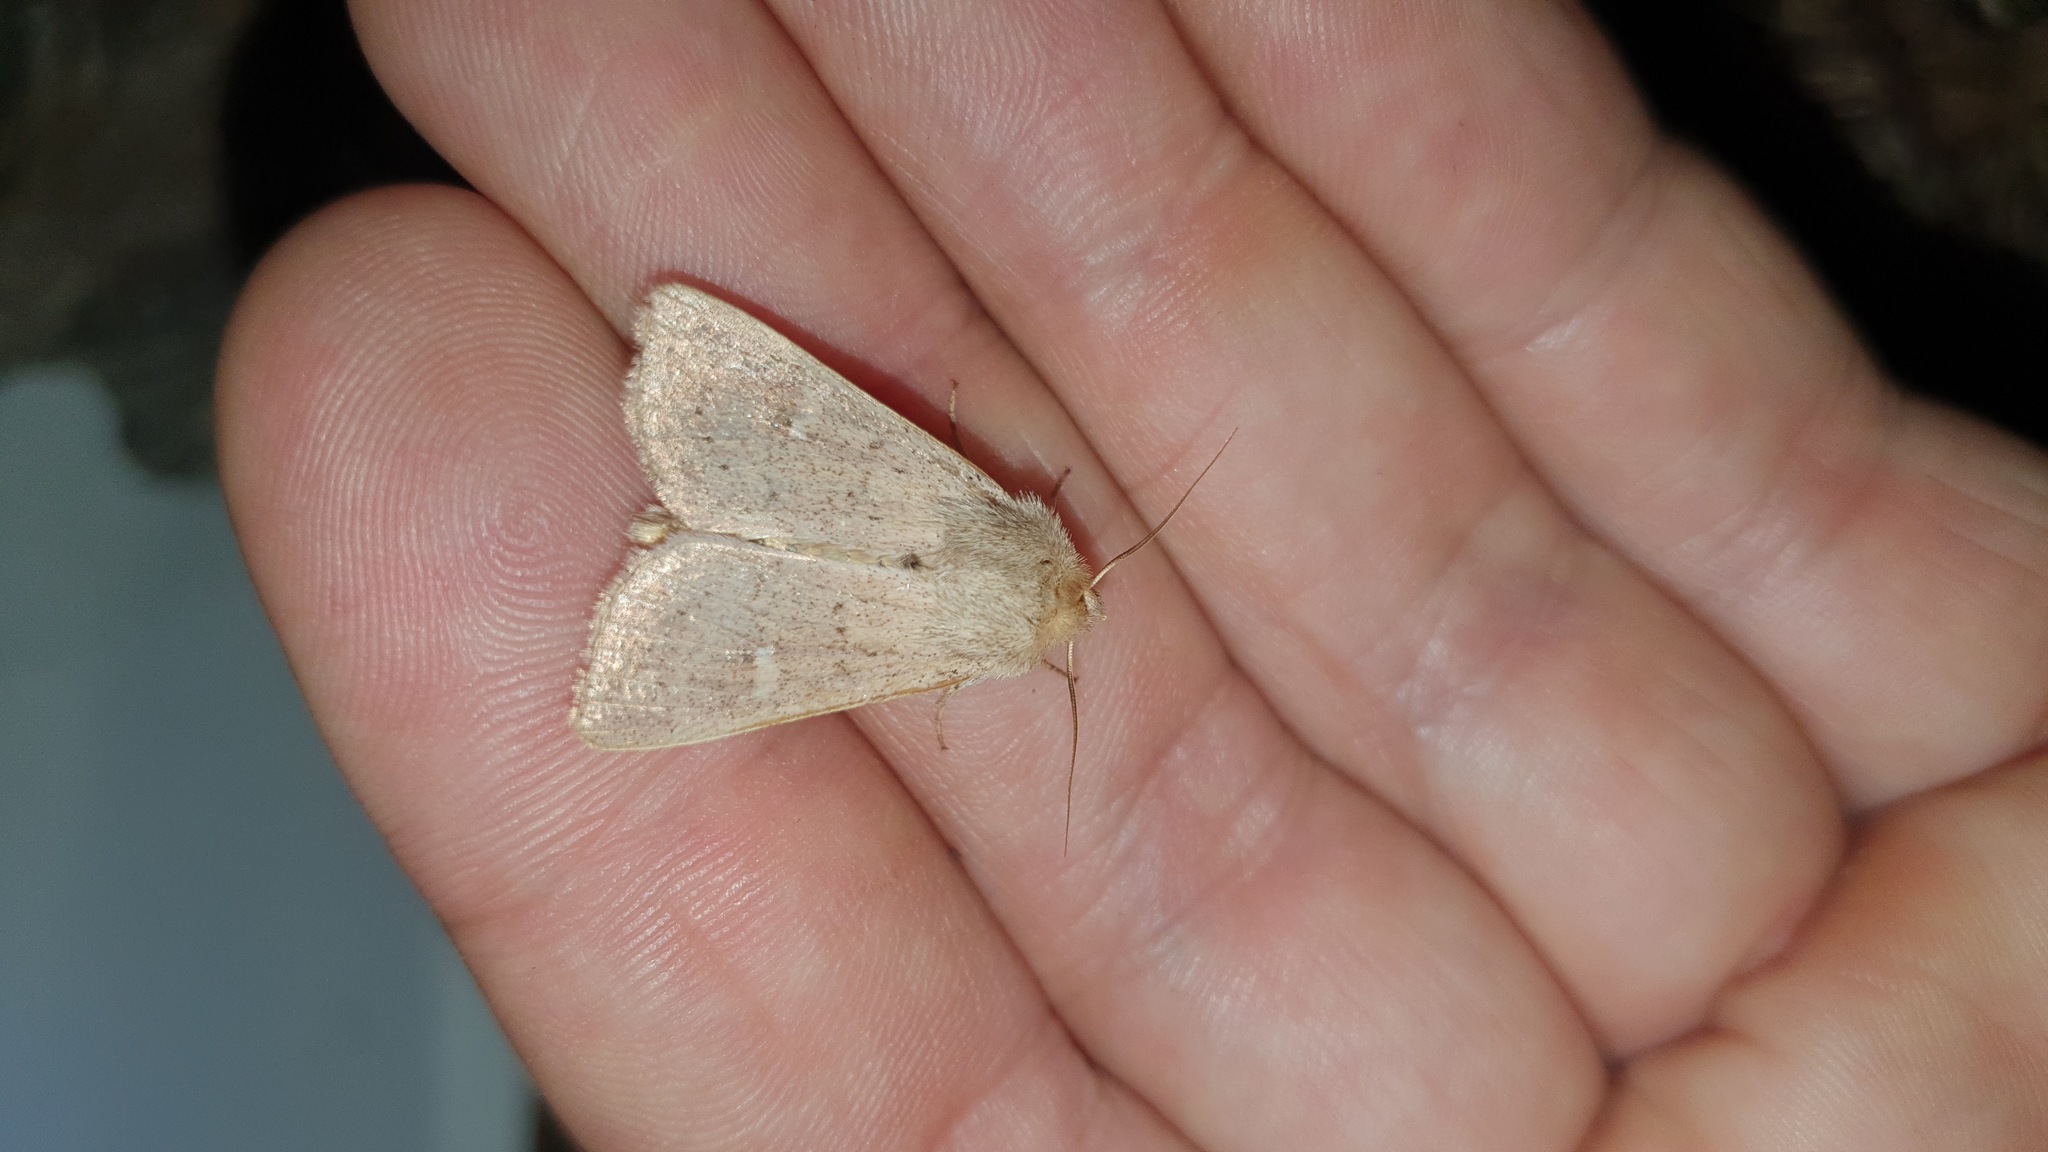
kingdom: Animalia
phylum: Arthropoda
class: Insecta
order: Lepidoptera
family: Noctuidae
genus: Mythimna
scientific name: Mythimna ferrago
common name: Clay
